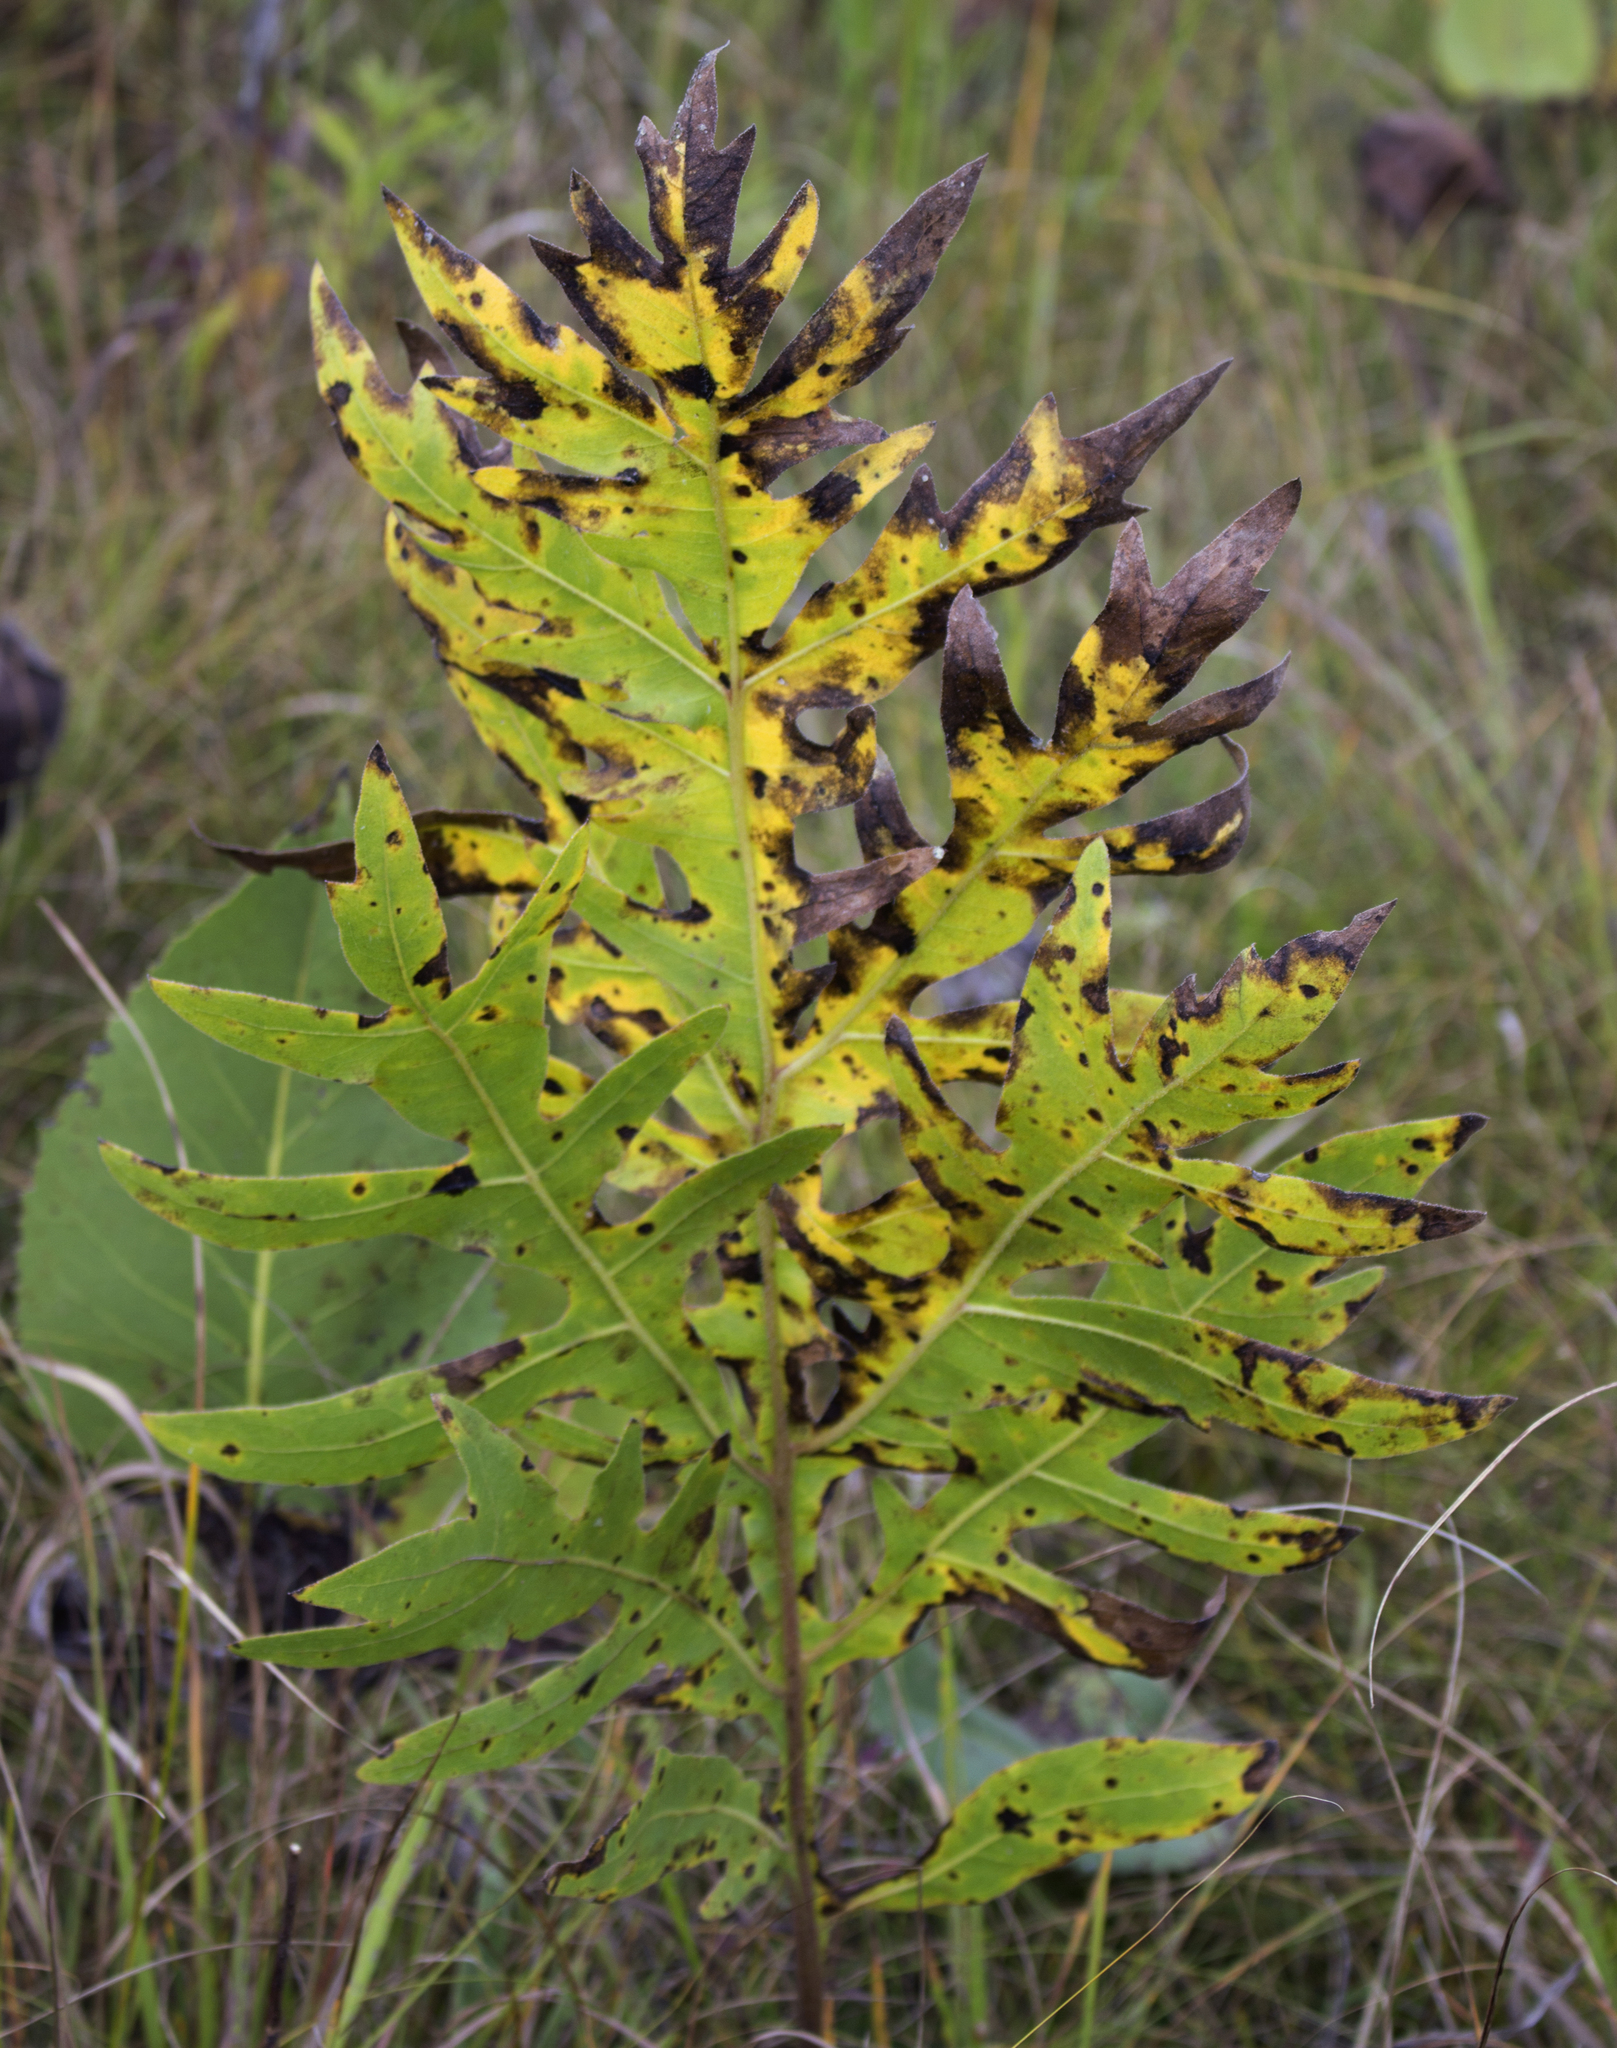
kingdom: Plantae
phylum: Tracheophyta
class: Magnoliopsida
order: Asterales
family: Asteraceae
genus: Silphium
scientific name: Silphium laciniatum
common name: Polarplant
